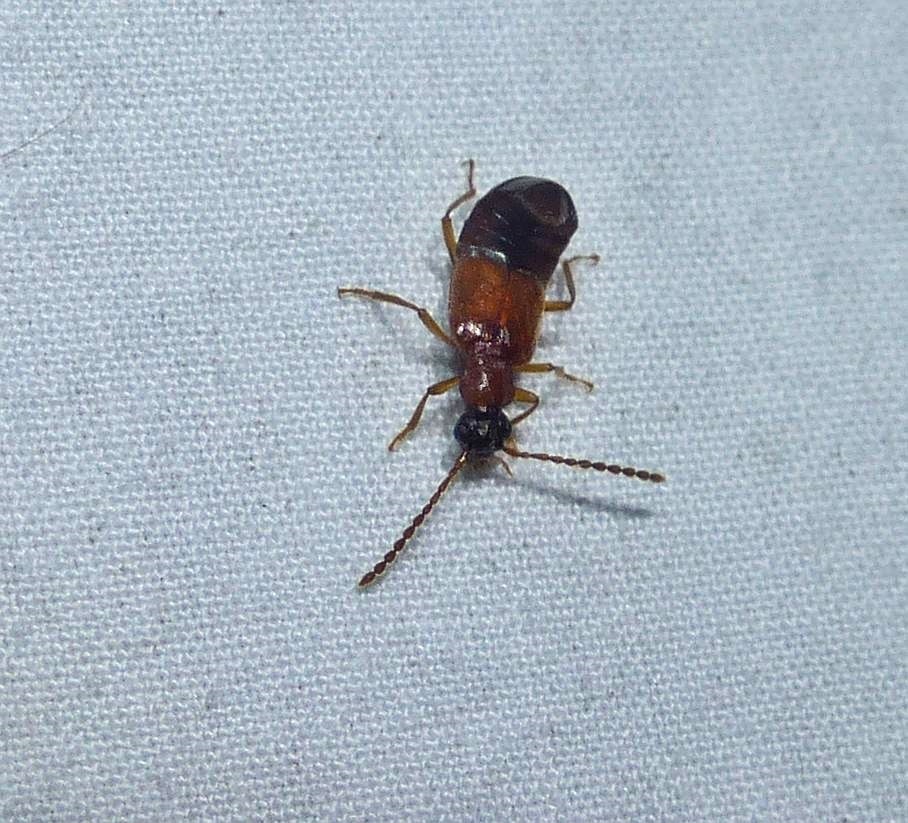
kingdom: Animalia
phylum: Arthropoda
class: Insecta
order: Coleoptera
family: Staphylinidae
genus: Deleaster
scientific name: Deleaster dichrous
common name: Rove beetle
